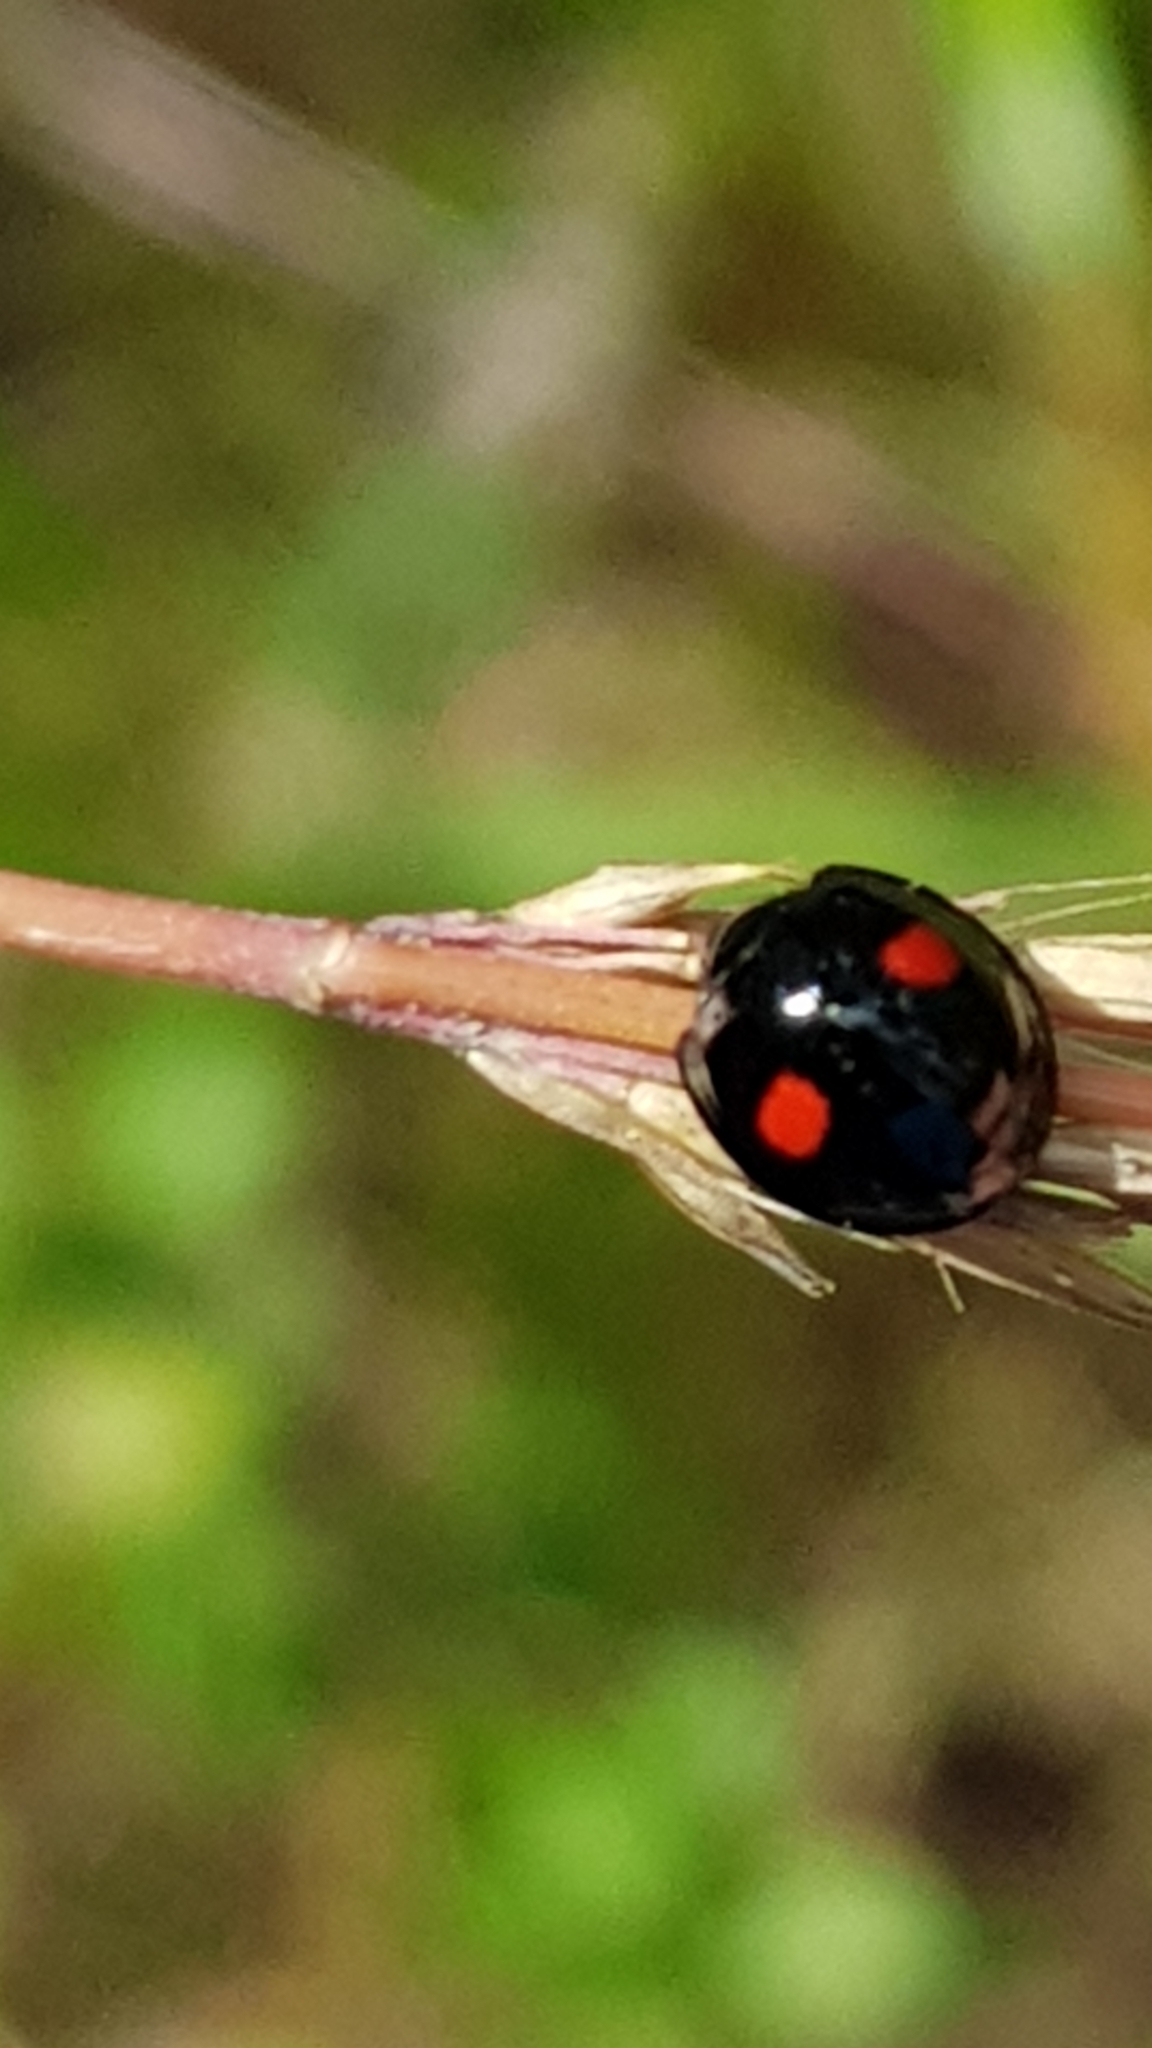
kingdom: Animalia
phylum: Arthropoda
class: Insecta
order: Coleoptera
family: Coccinellidae
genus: Chilocorus
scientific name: Chilocorus renipustulatus
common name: Kidney-spot ladybird
